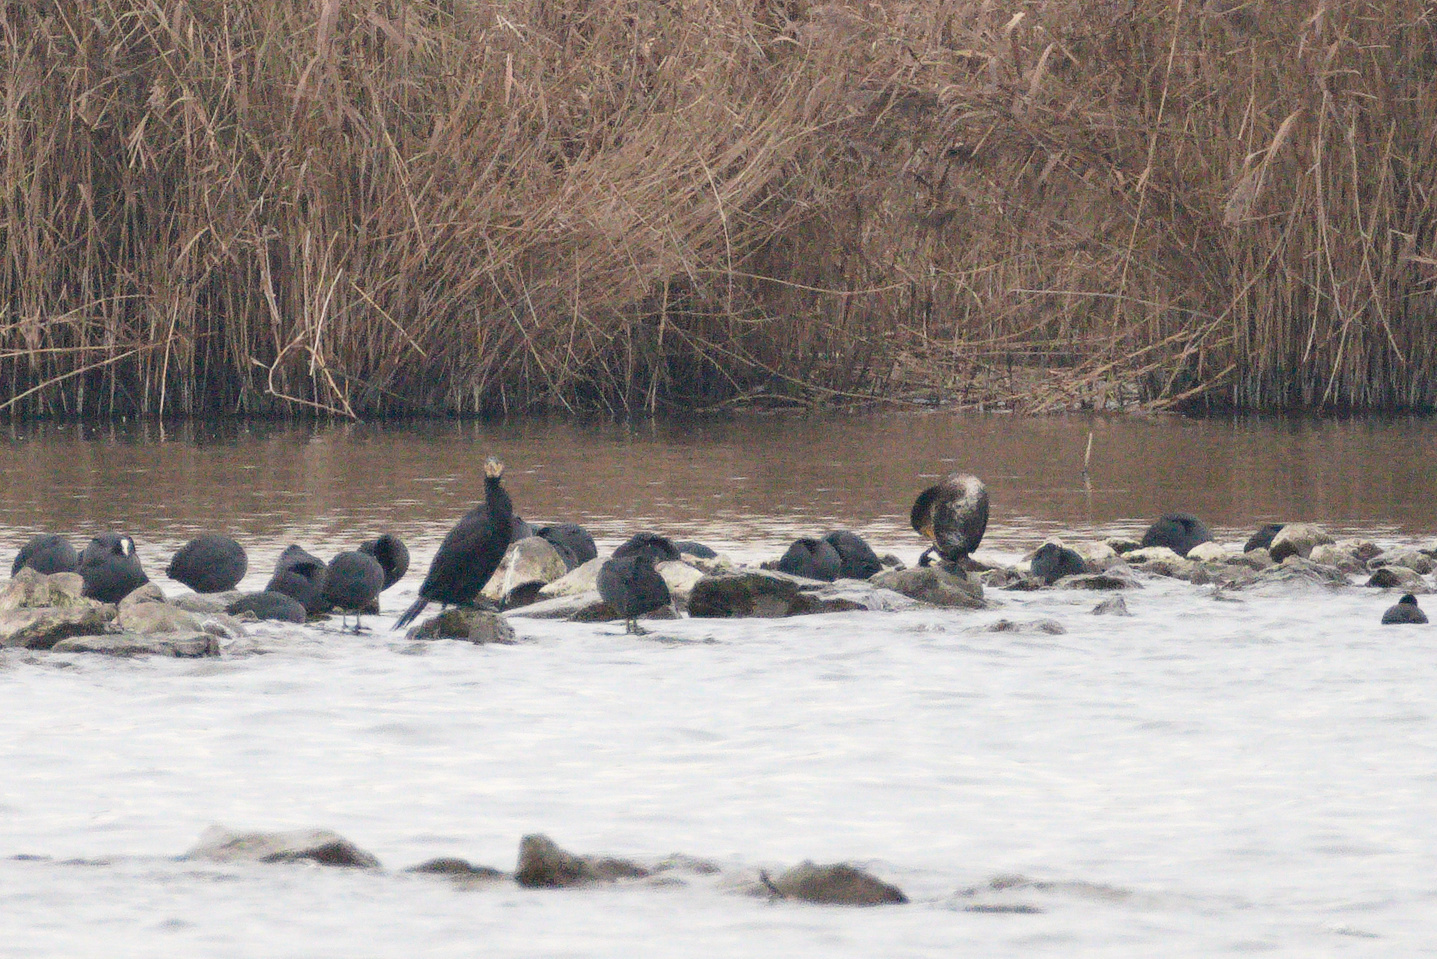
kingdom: Animalia
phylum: Chordata
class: Aves
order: Suliformes
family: Phalacrocoracidae
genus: Phalacrocorax
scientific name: Phalacrocorax carbo
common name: Great cormorant
